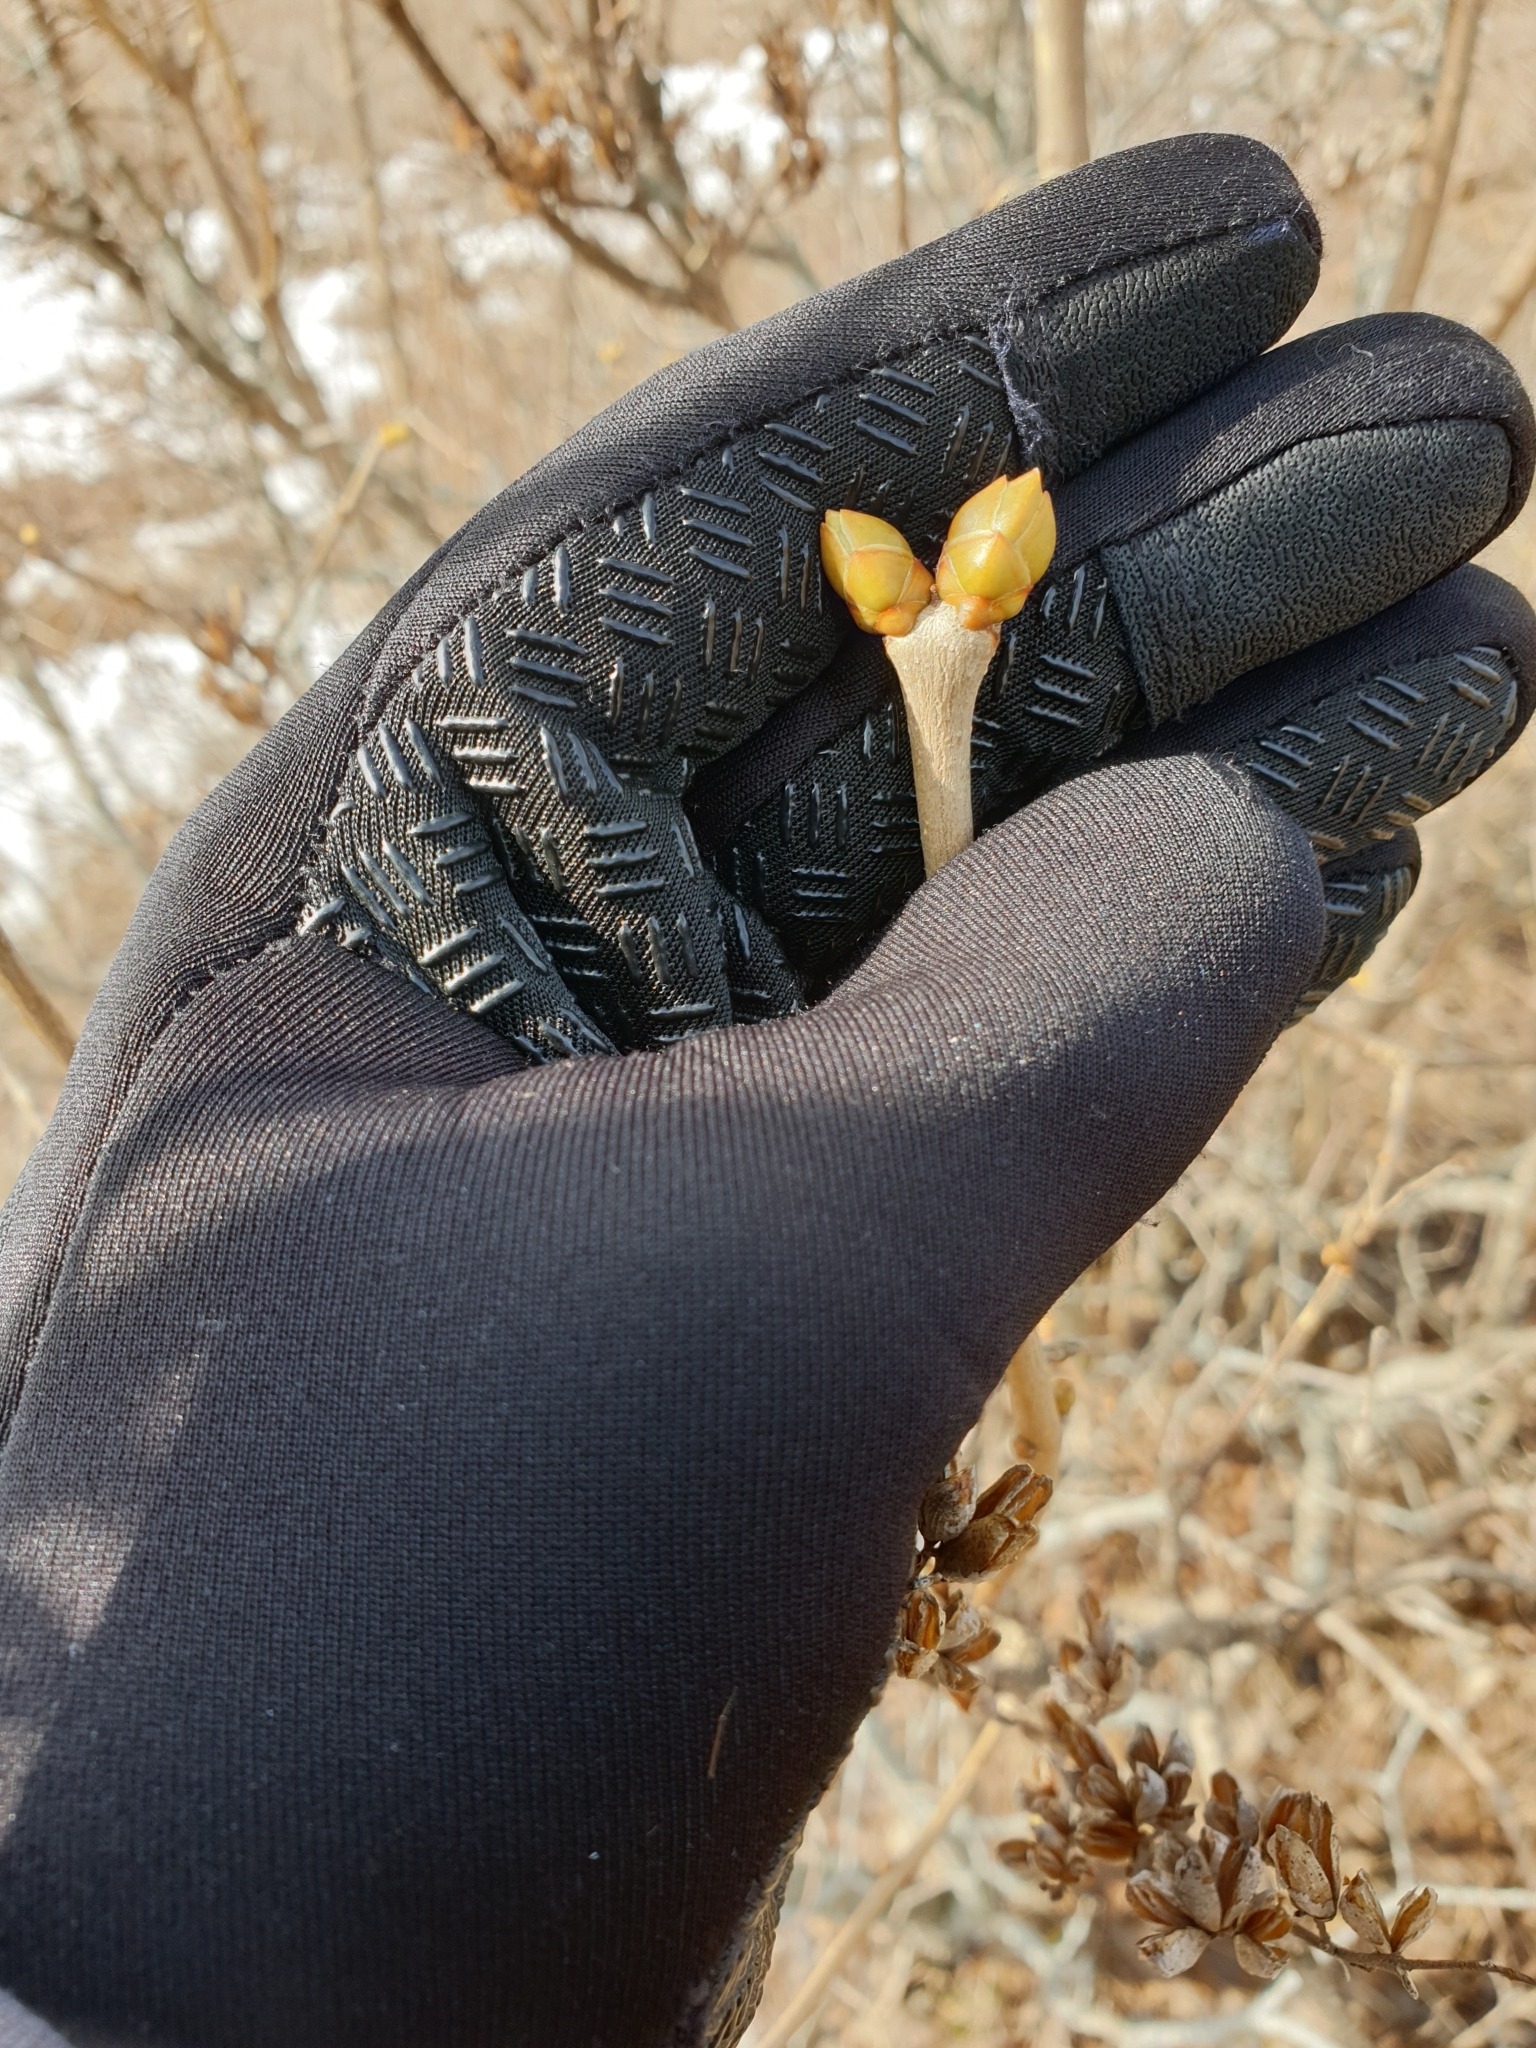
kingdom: Plantae
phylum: Tracheophyta
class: Magnoliopsida
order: Lamiales
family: Oleaceae
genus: Syringa
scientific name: Syringa vulgaris
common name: Common lilac
